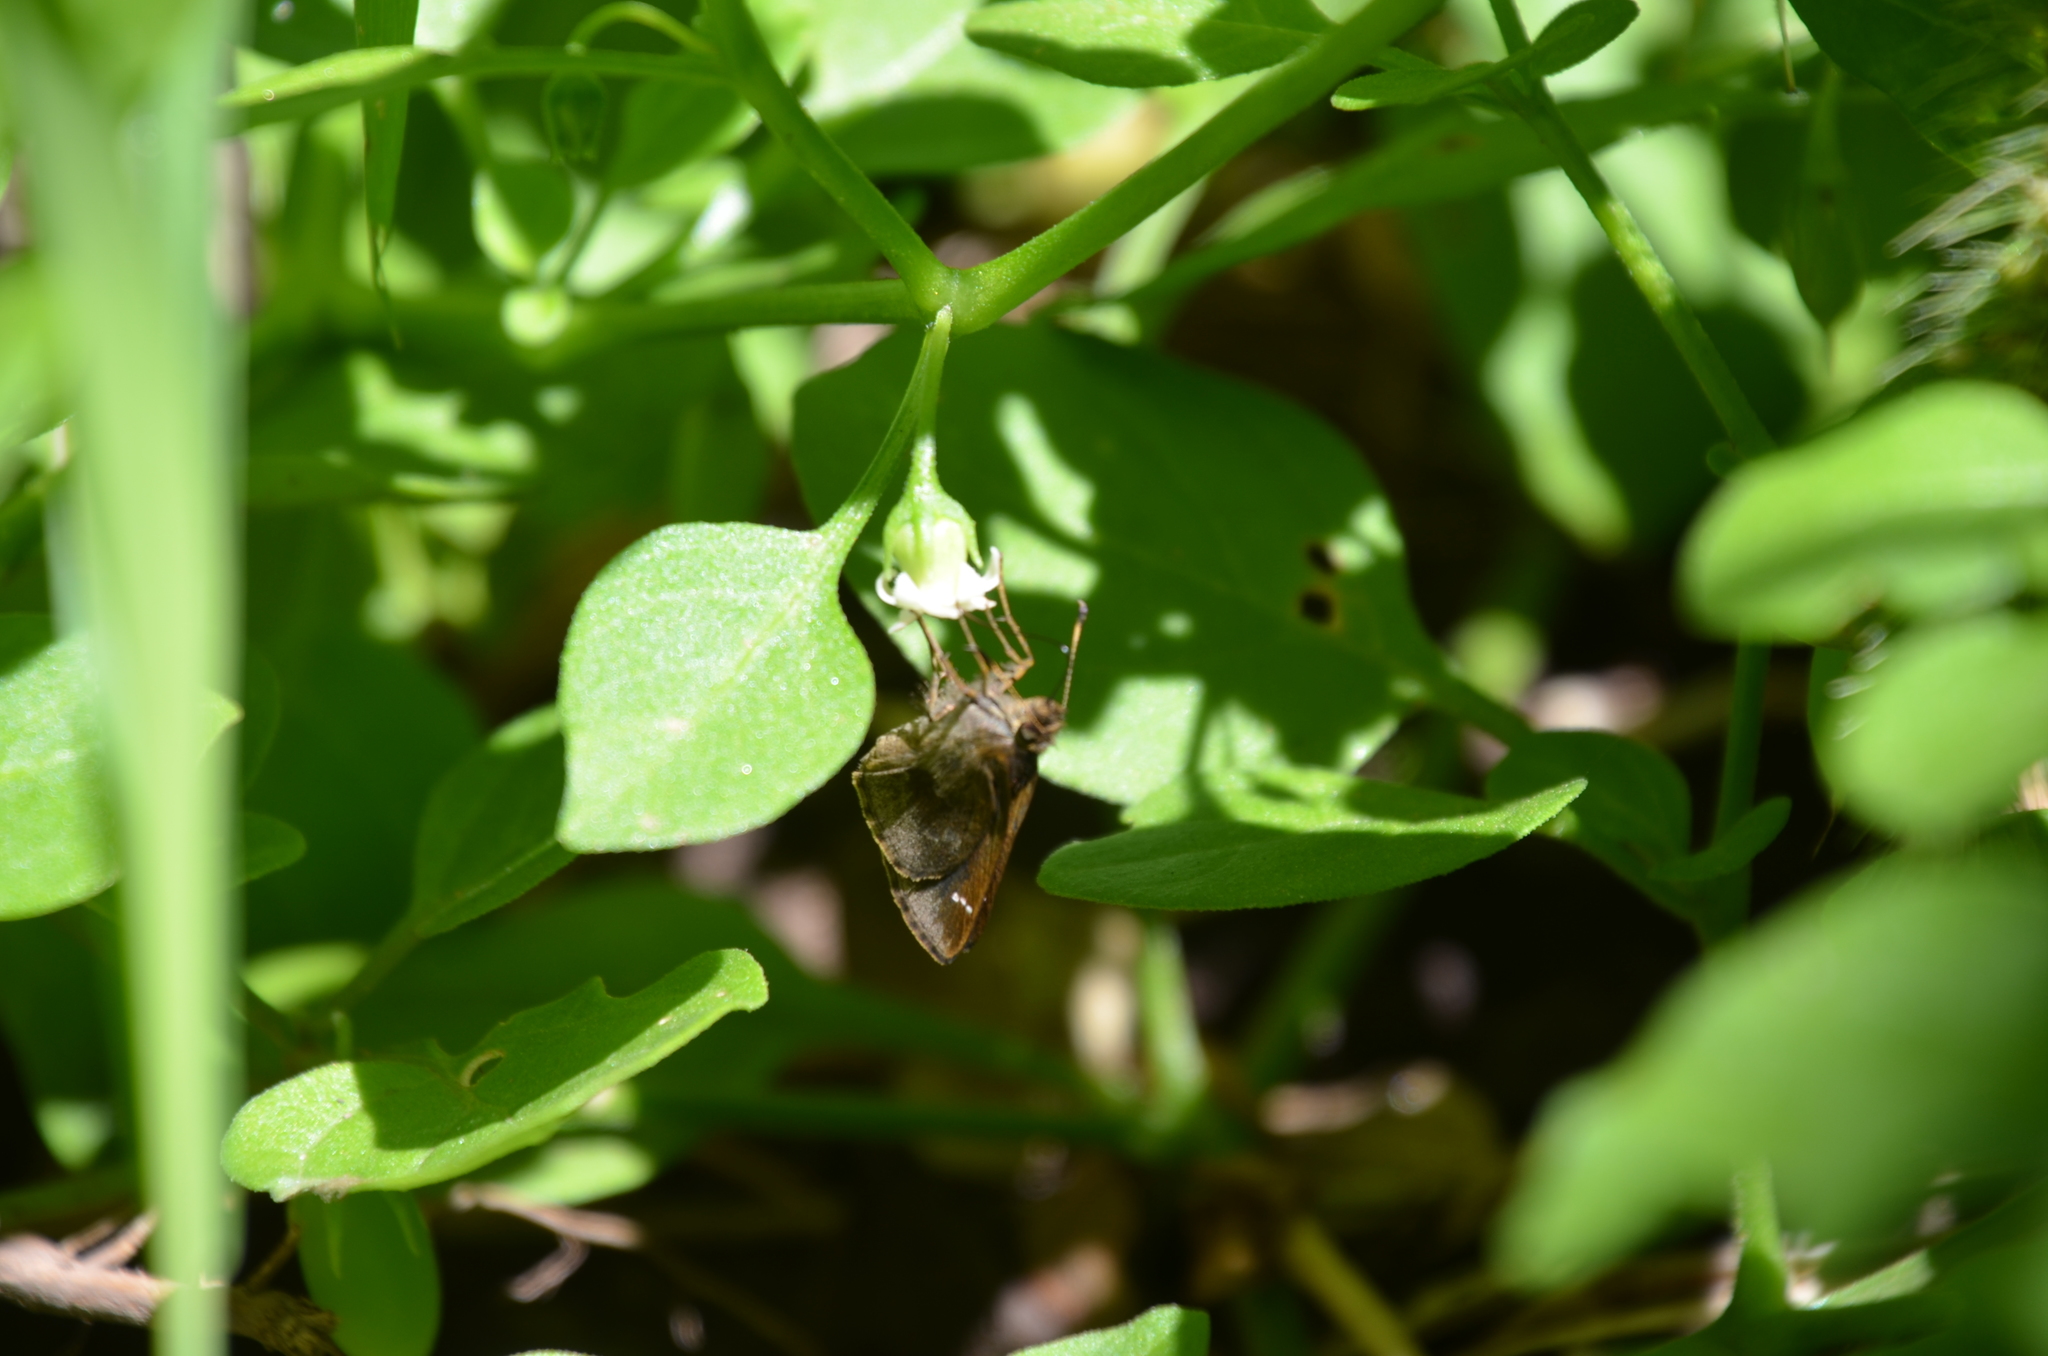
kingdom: Animalia
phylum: Arthropoda
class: Insecta
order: Lepidoptera
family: Hesperiidae
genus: Cymaenes
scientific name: Cymaenes
